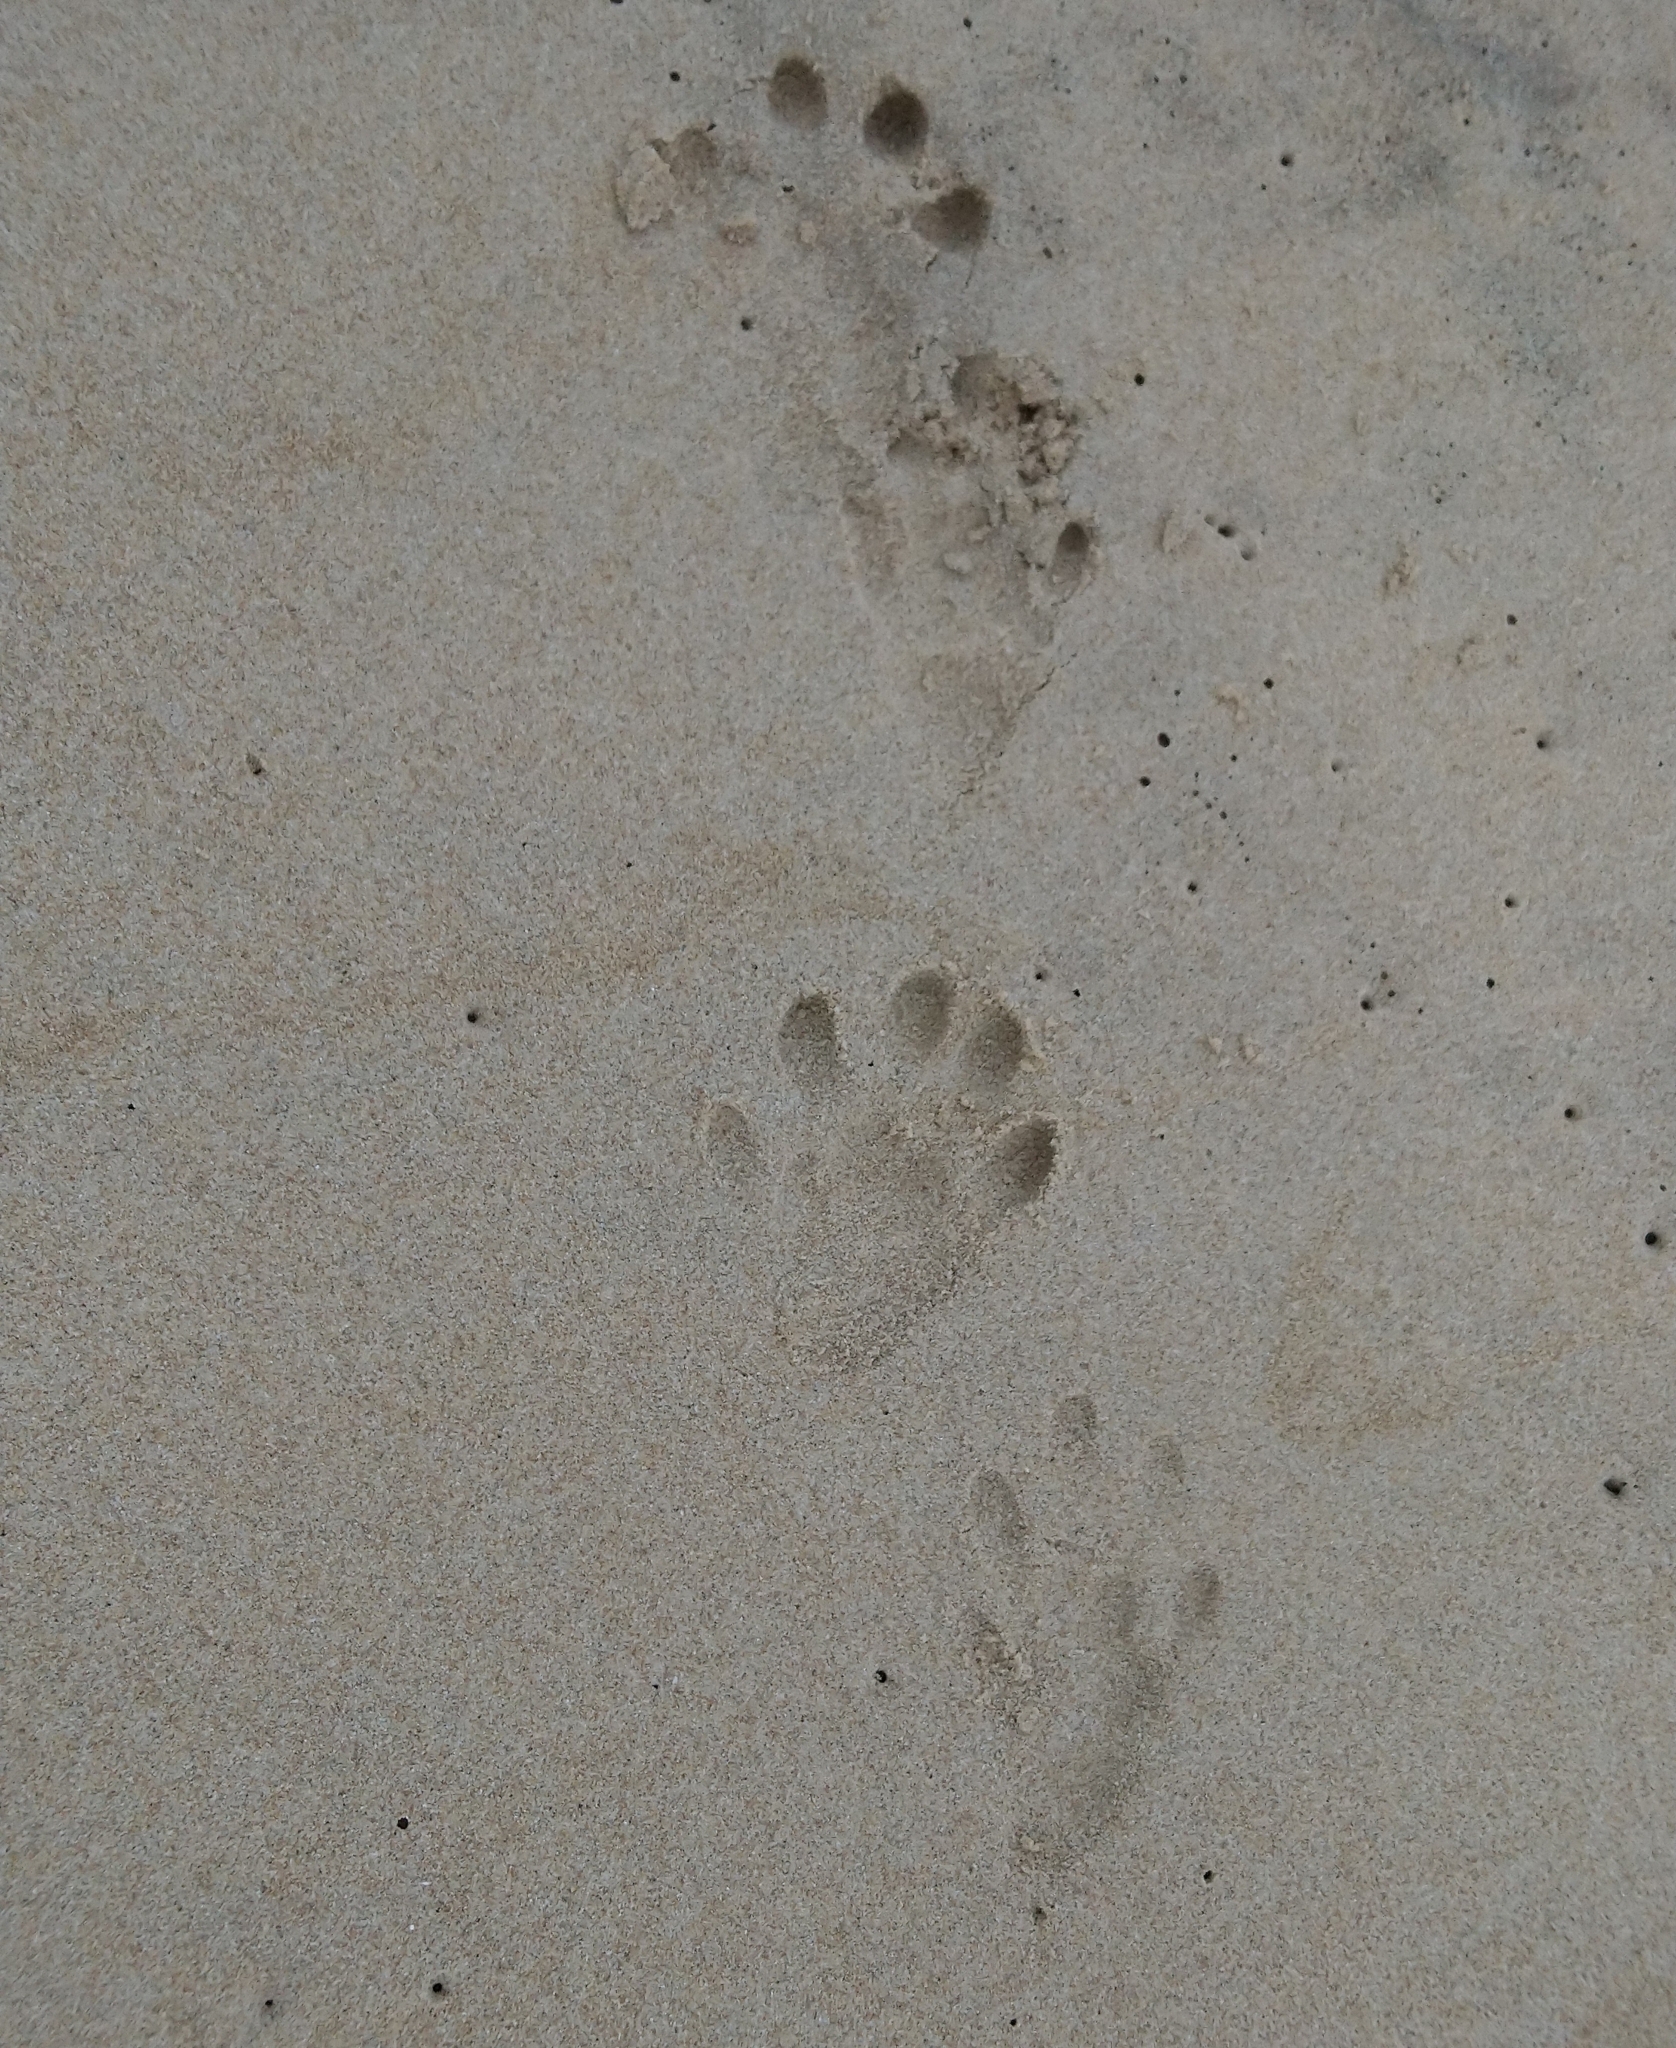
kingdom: Animalia
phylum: Chordata
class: Mammalia
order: Carnivora
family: Mustelidae
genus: Aonyx
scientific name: Aonyx capensis
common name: African clawless otter
